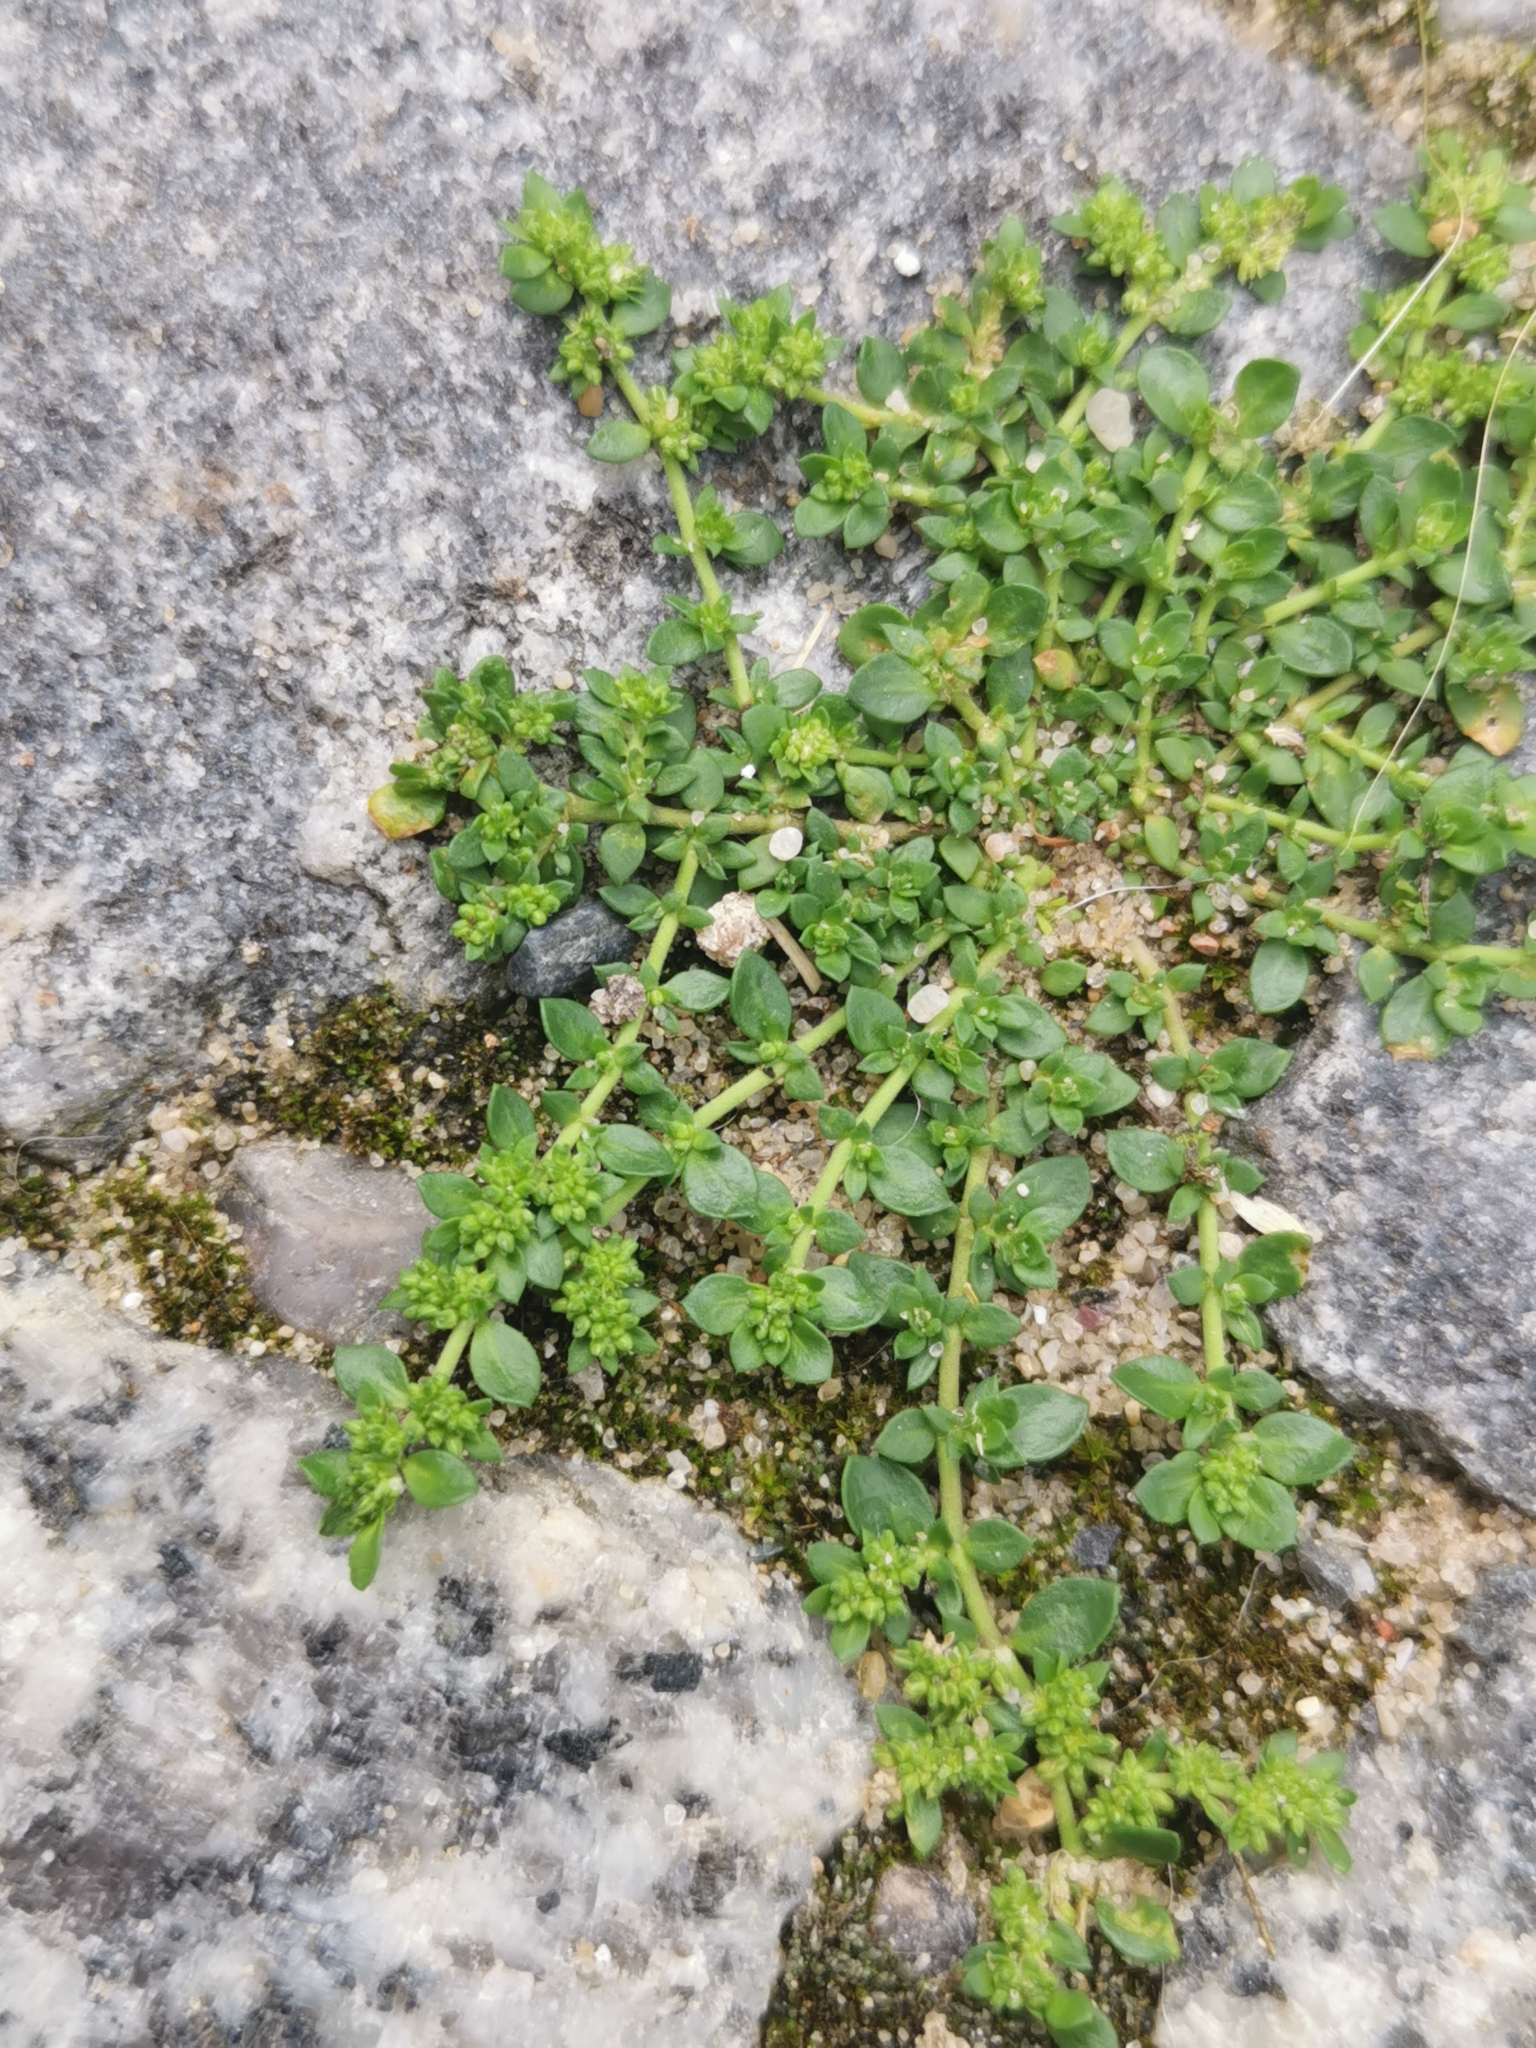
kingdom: Plantae
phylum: Tracheophyta
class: Magnoliopsida
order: Caryophyllales
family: Caryophyllaceae
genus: Herniaria
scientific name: Herniaria glabra
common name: Smooth rupturewort
